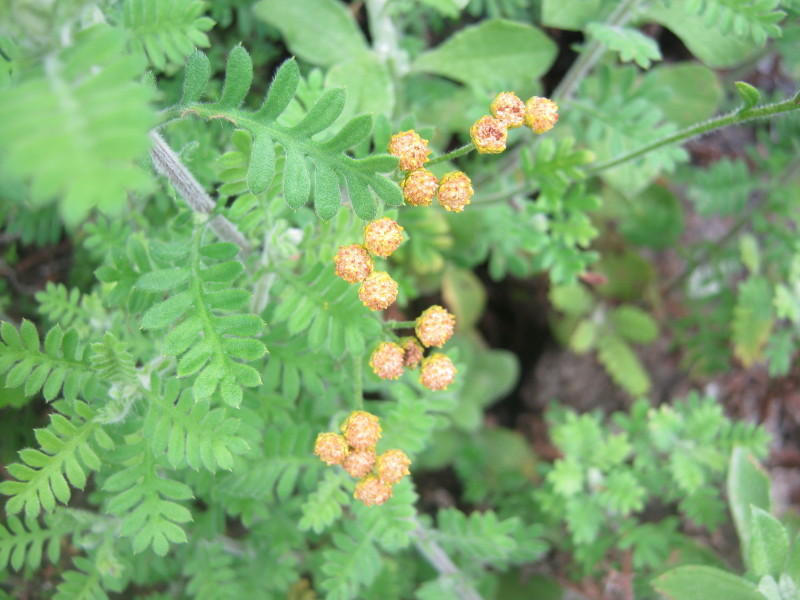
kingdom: Plantae
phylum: Tracheophyta
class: Magnoliopsida
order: Asterales
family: Asteraceae
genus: Hippia
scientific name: Hippia frutescens
